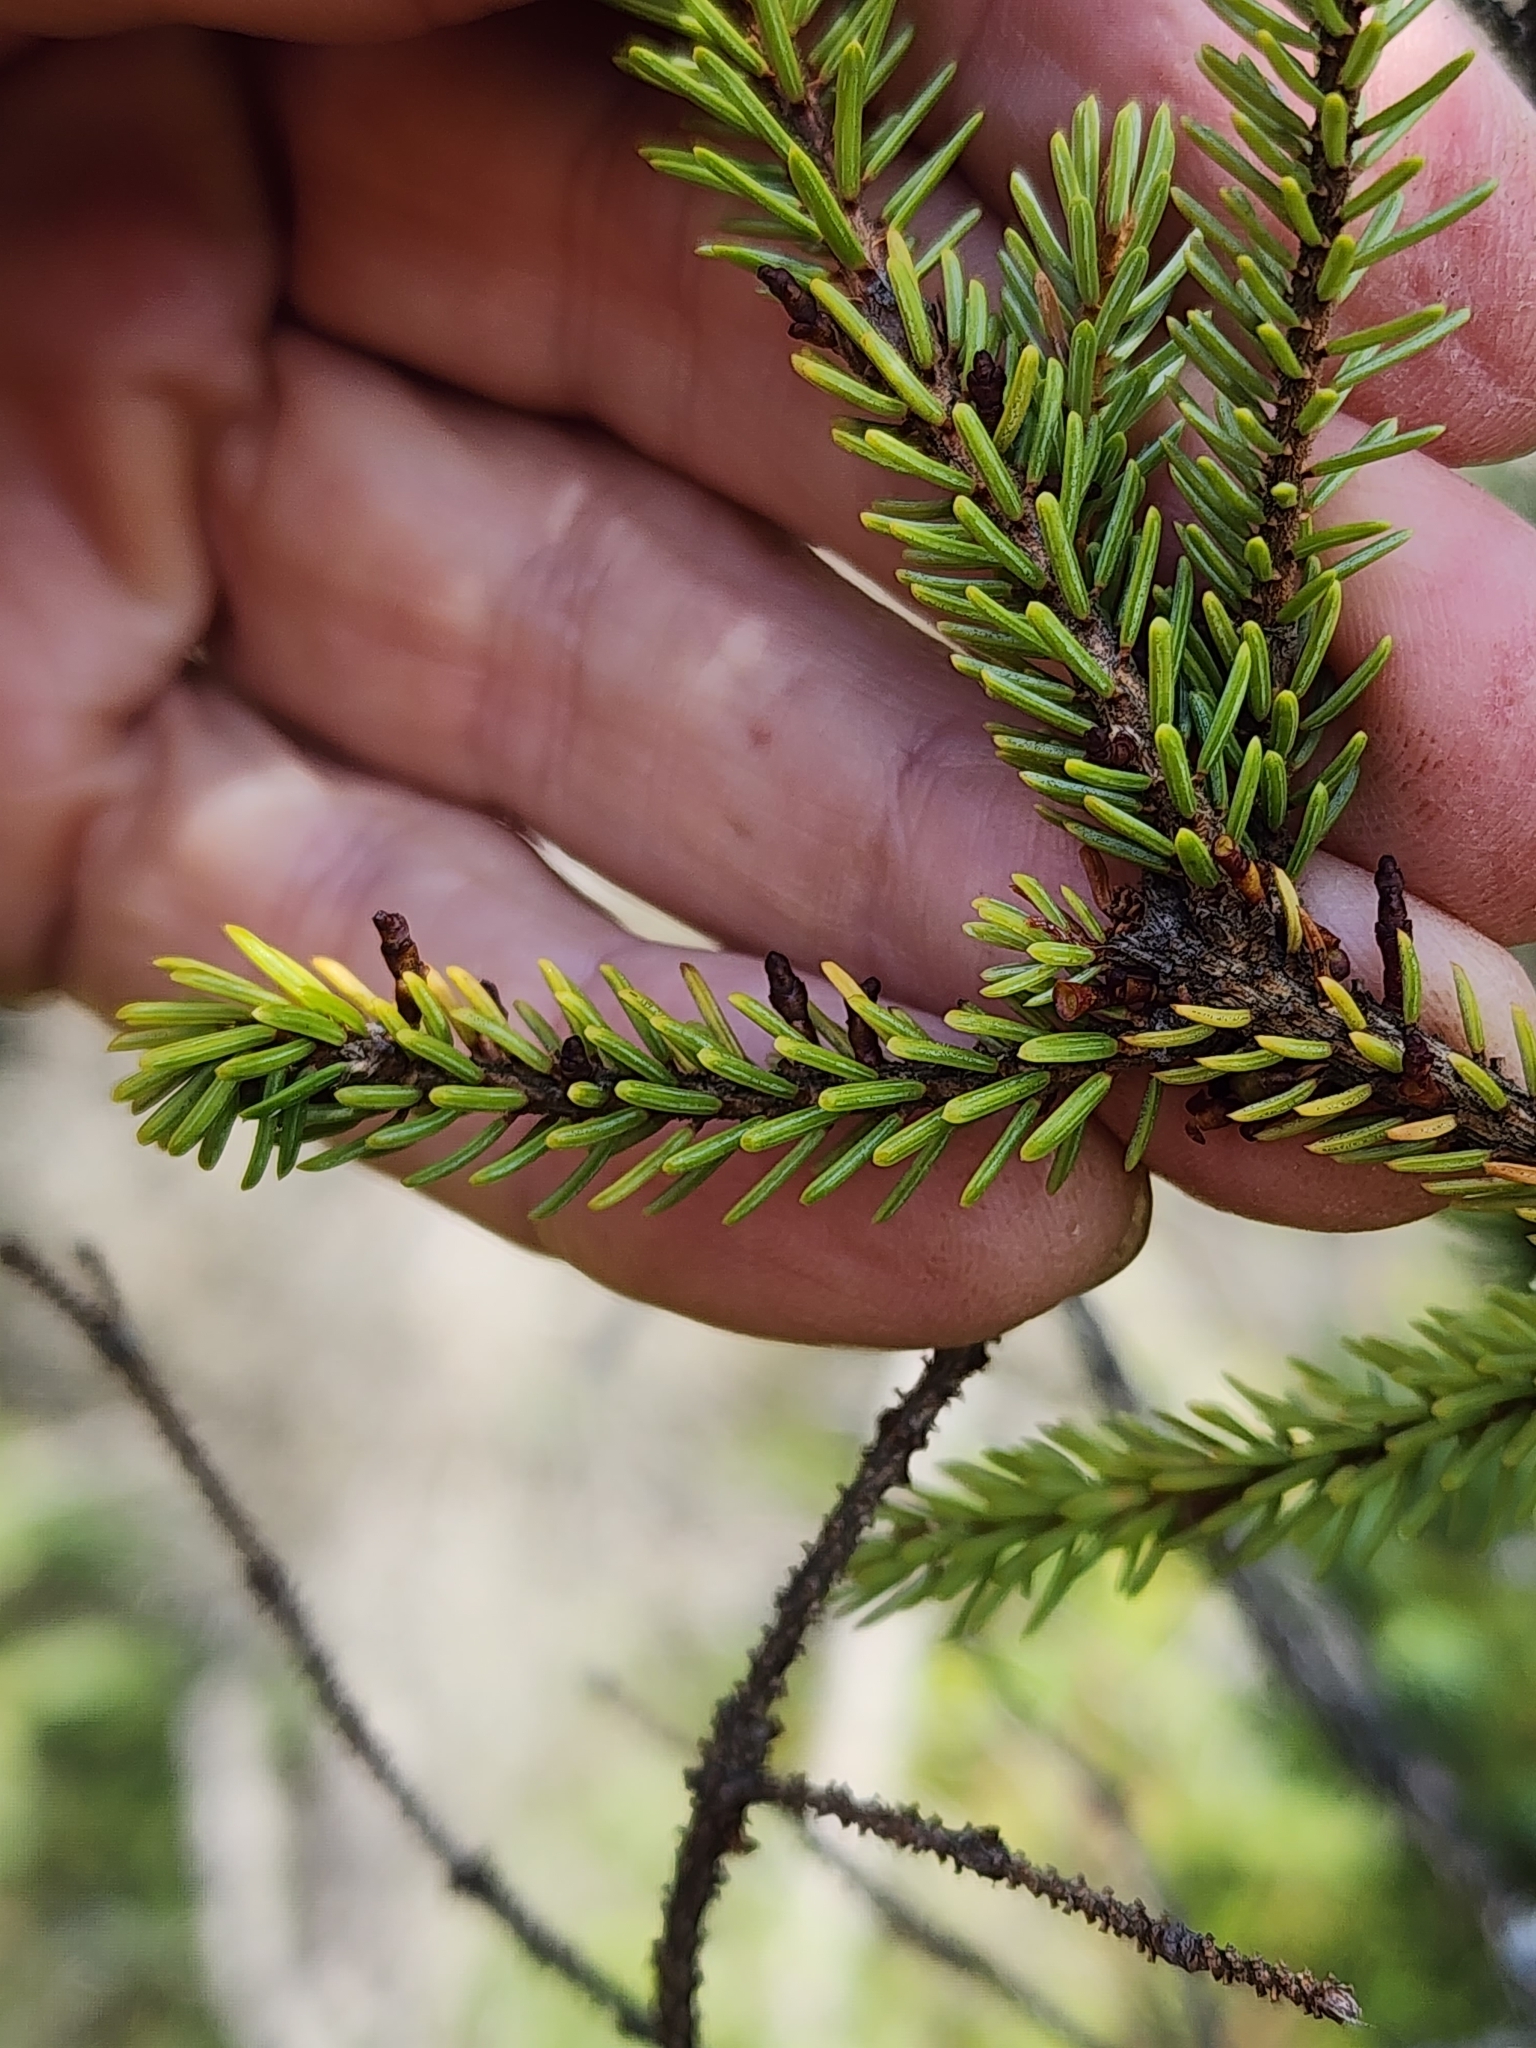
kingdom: Plantae
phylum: Tracheophyta
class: Magnoliopsida
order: Santalales
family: Viscaceae
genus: Arceuthobium
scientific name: Arceuthobium pusillum
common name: Dwarf-mistletoe
